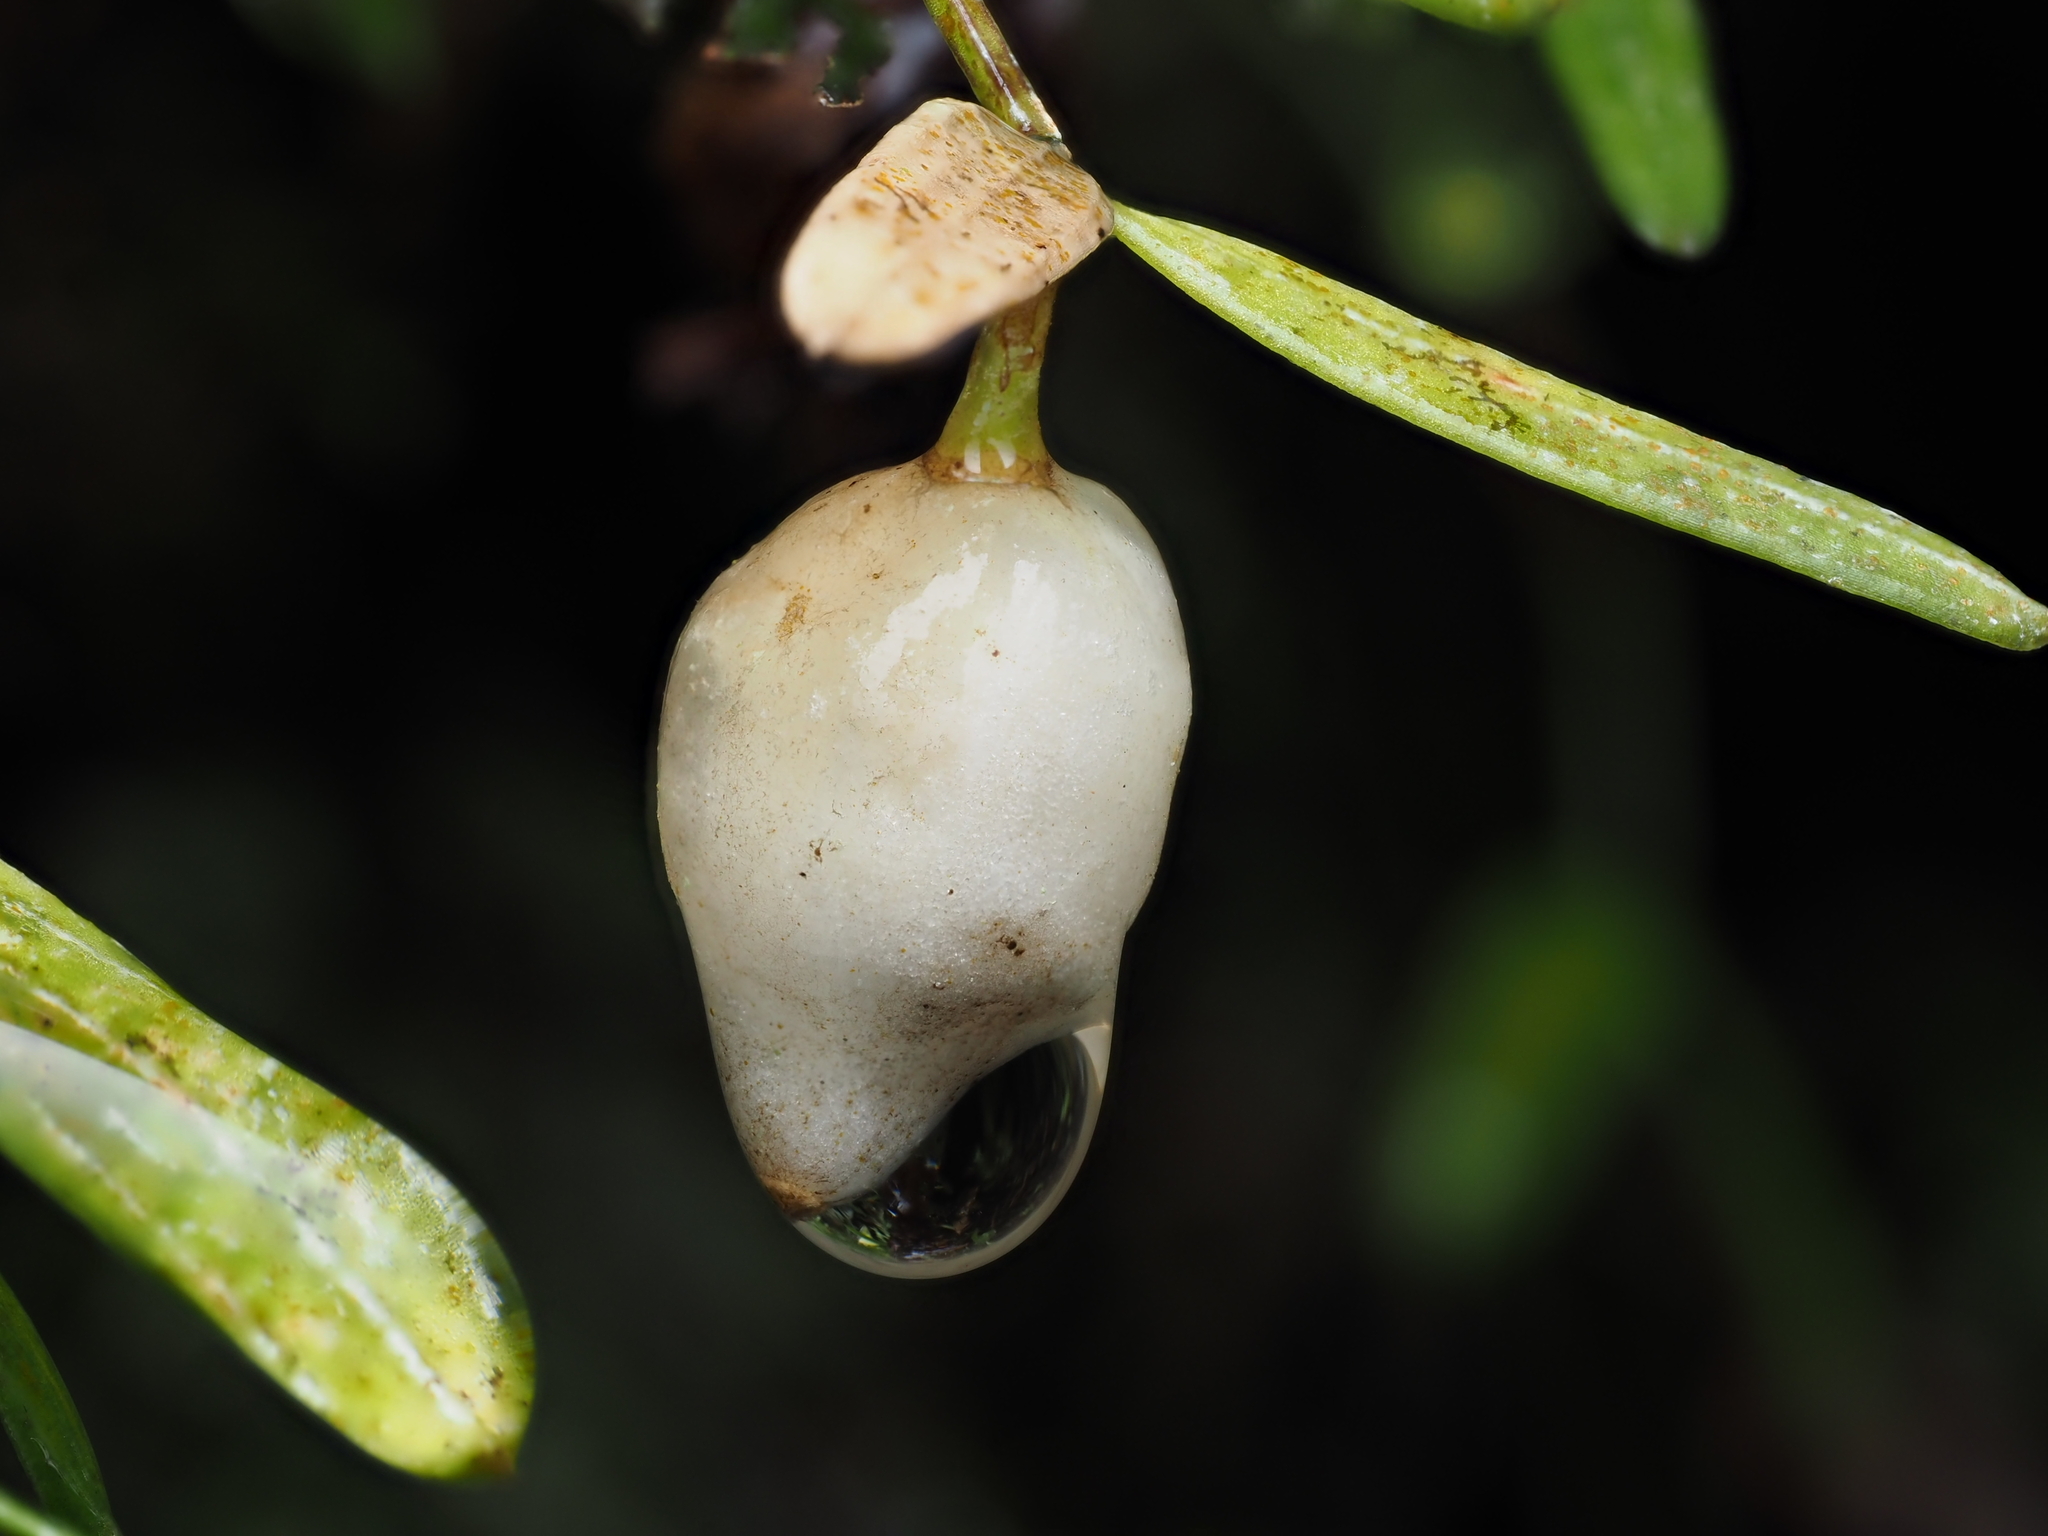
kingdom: Plantae
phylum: Tracheophyta
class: Liliopsida
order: Liliales
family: Alstroemeriaceae
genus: Luzuriaga
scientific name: Luzuriaga parviflora
